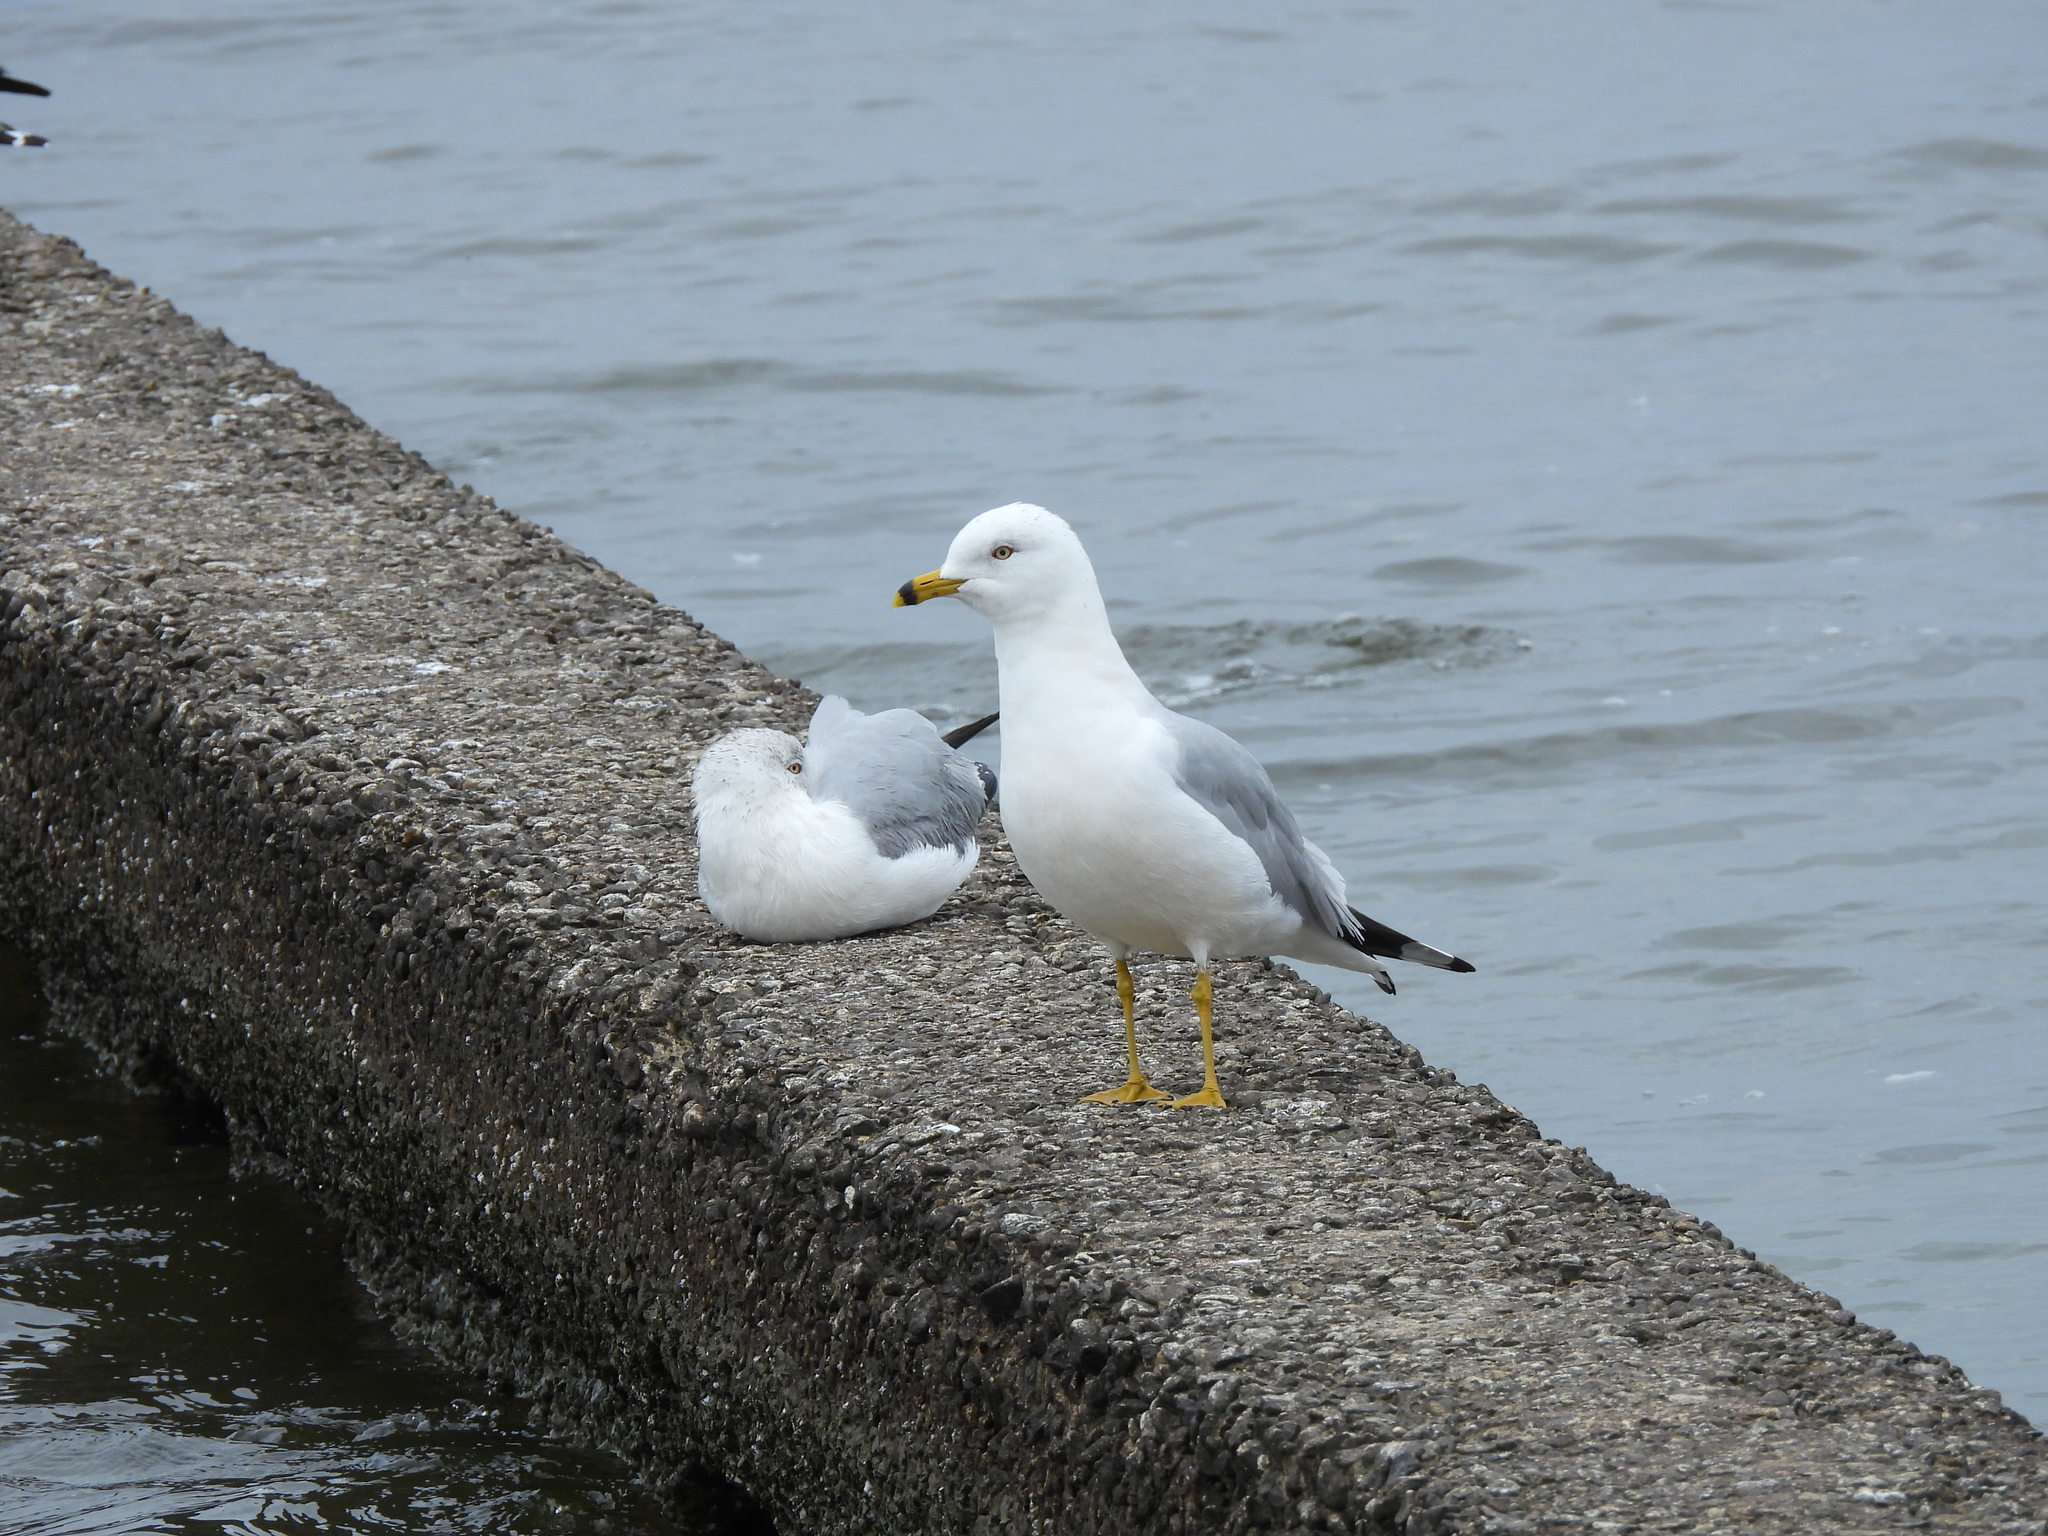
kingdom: Animalia
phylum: Chordata
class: Aves
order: Charadriiformes
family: Laridae
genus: Larus
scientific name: Larus delawarensis
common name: Ring-billed gull
